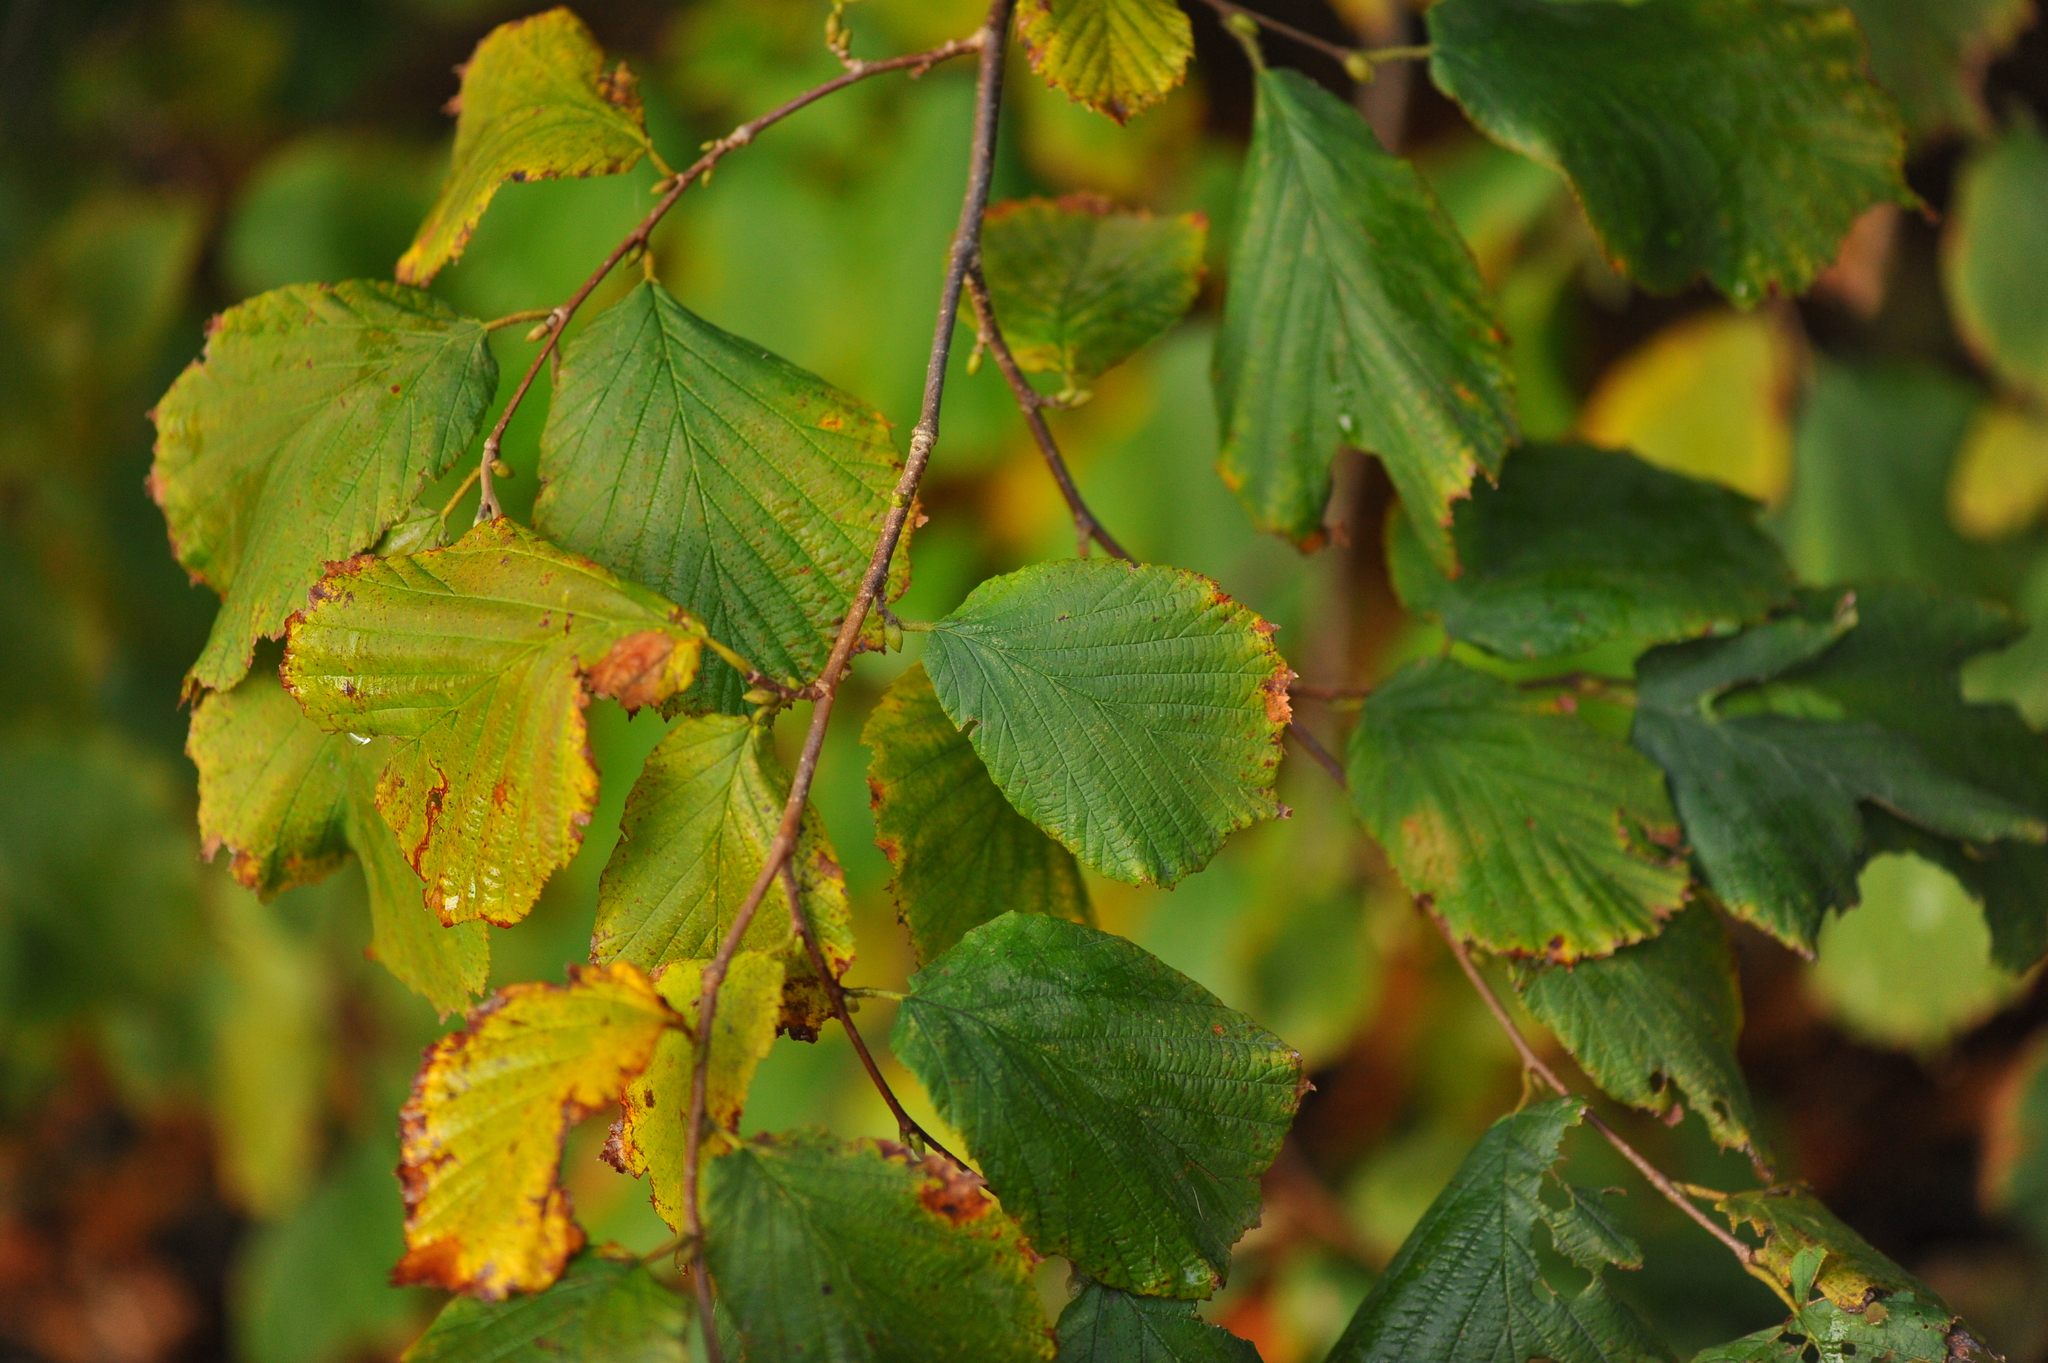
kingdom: Plantae
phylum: Tracheophyta
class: Magnoliopsida
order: Fagales
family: Betulaceae
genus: Corylus
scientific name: Corylus avellana
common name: European hazel
